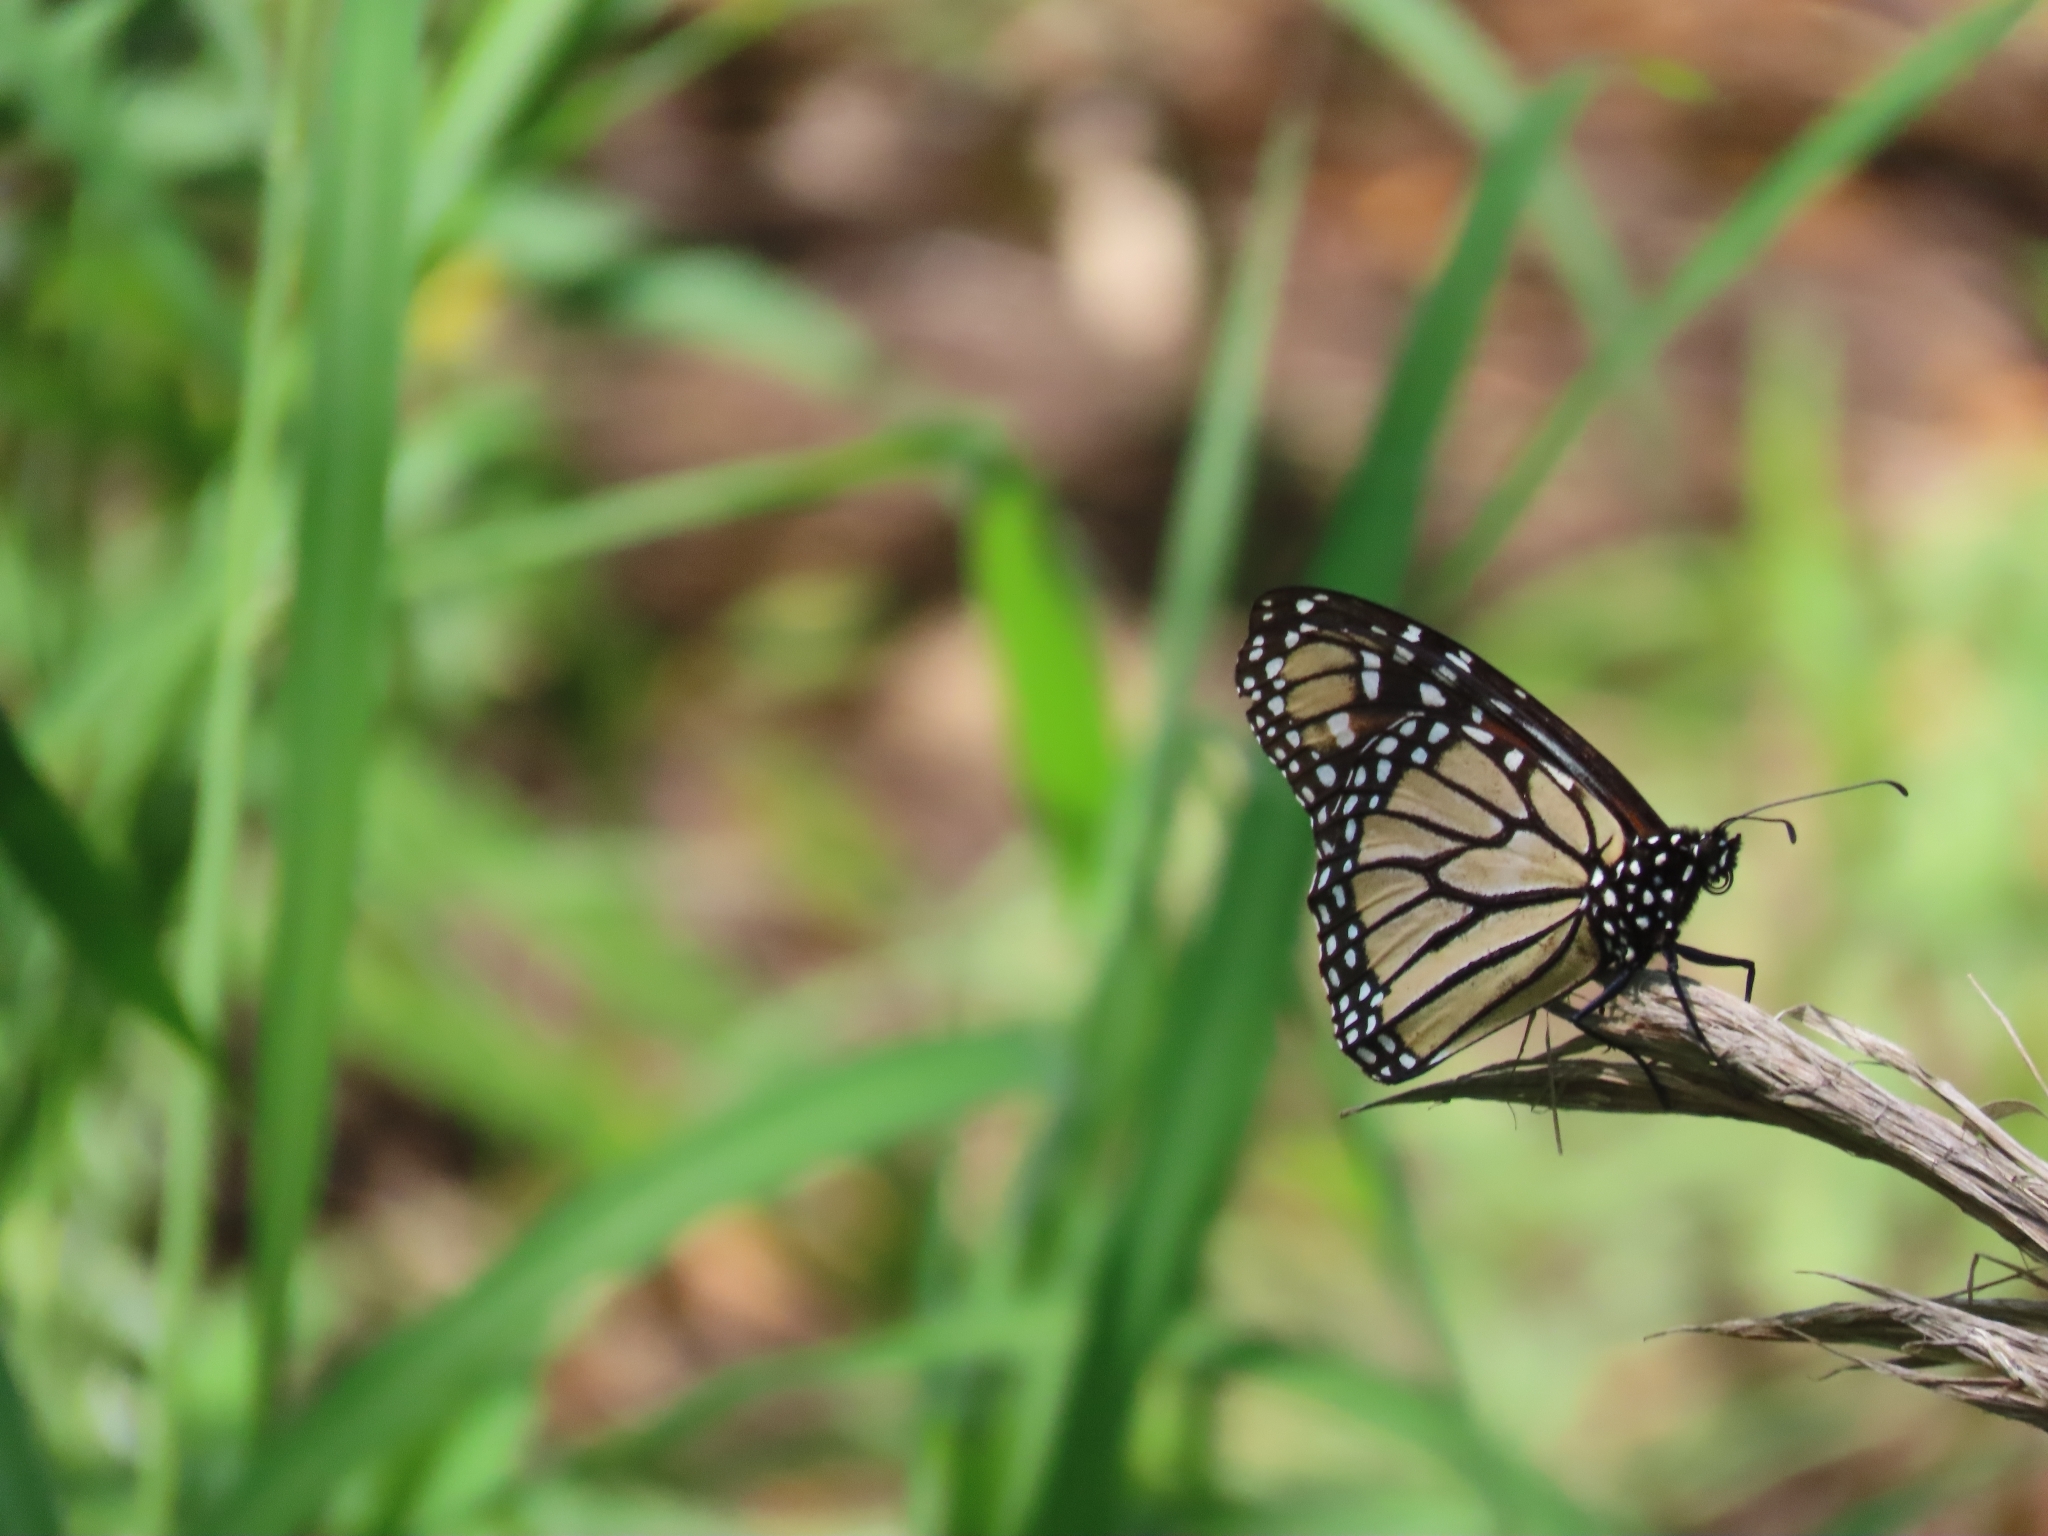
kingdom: Animalia
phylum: Arthropoda
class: Insecta
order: Lepidoptera
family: Nymphalidae
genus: Danaus
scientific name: Danaus plexippus
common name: Monarch
